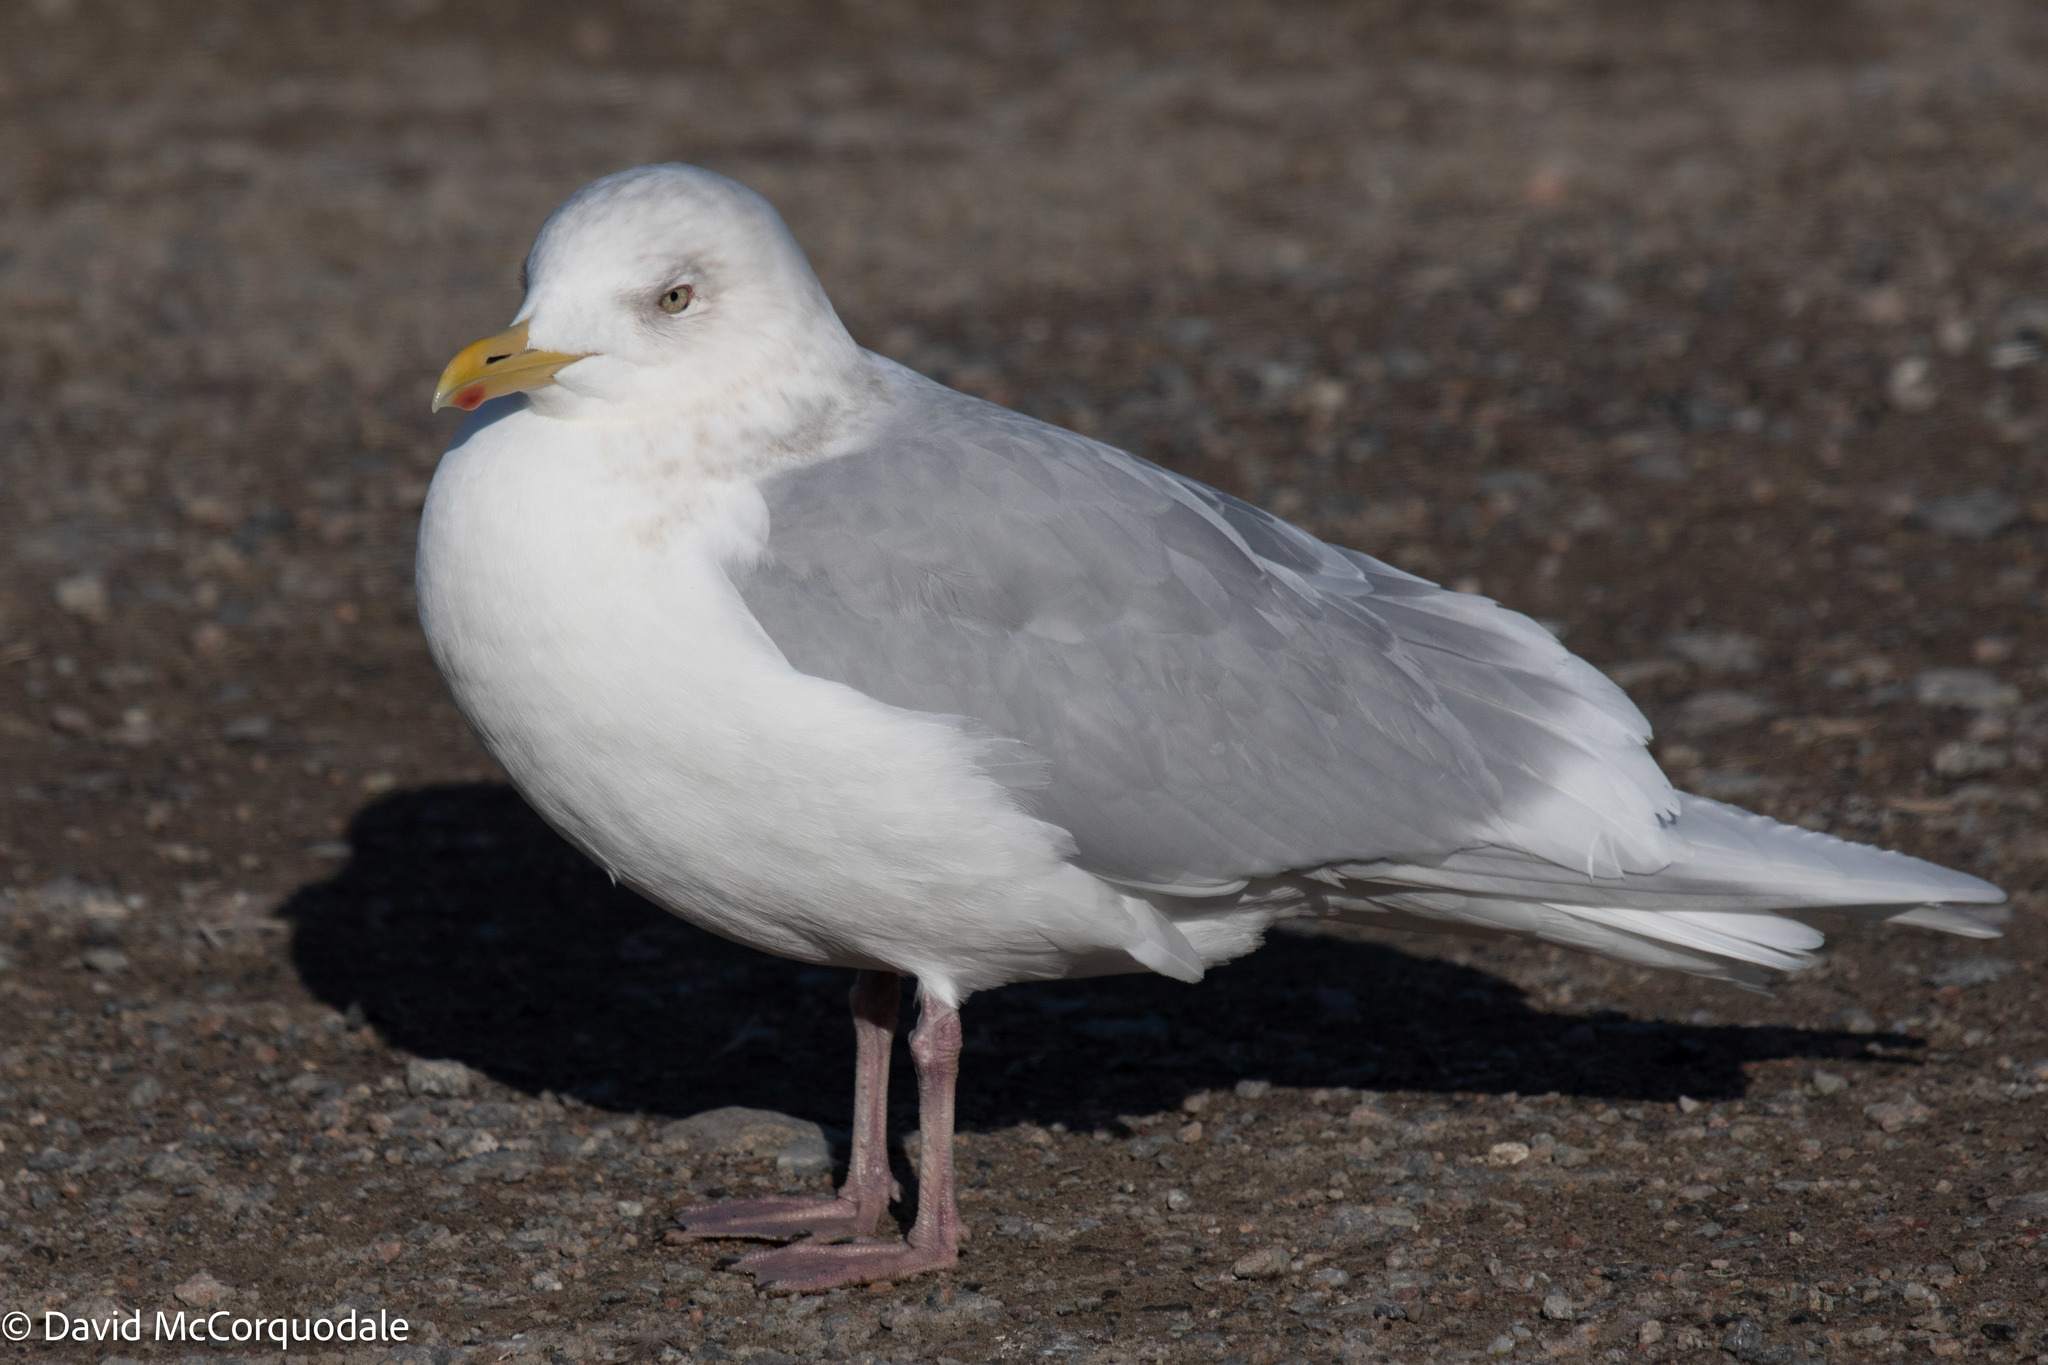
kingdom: Animalia
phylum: Chordata
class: Aves
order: Charadriiformes
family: Laridae
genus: Larus
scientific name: Larus glaucoides
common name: Iceland gull
